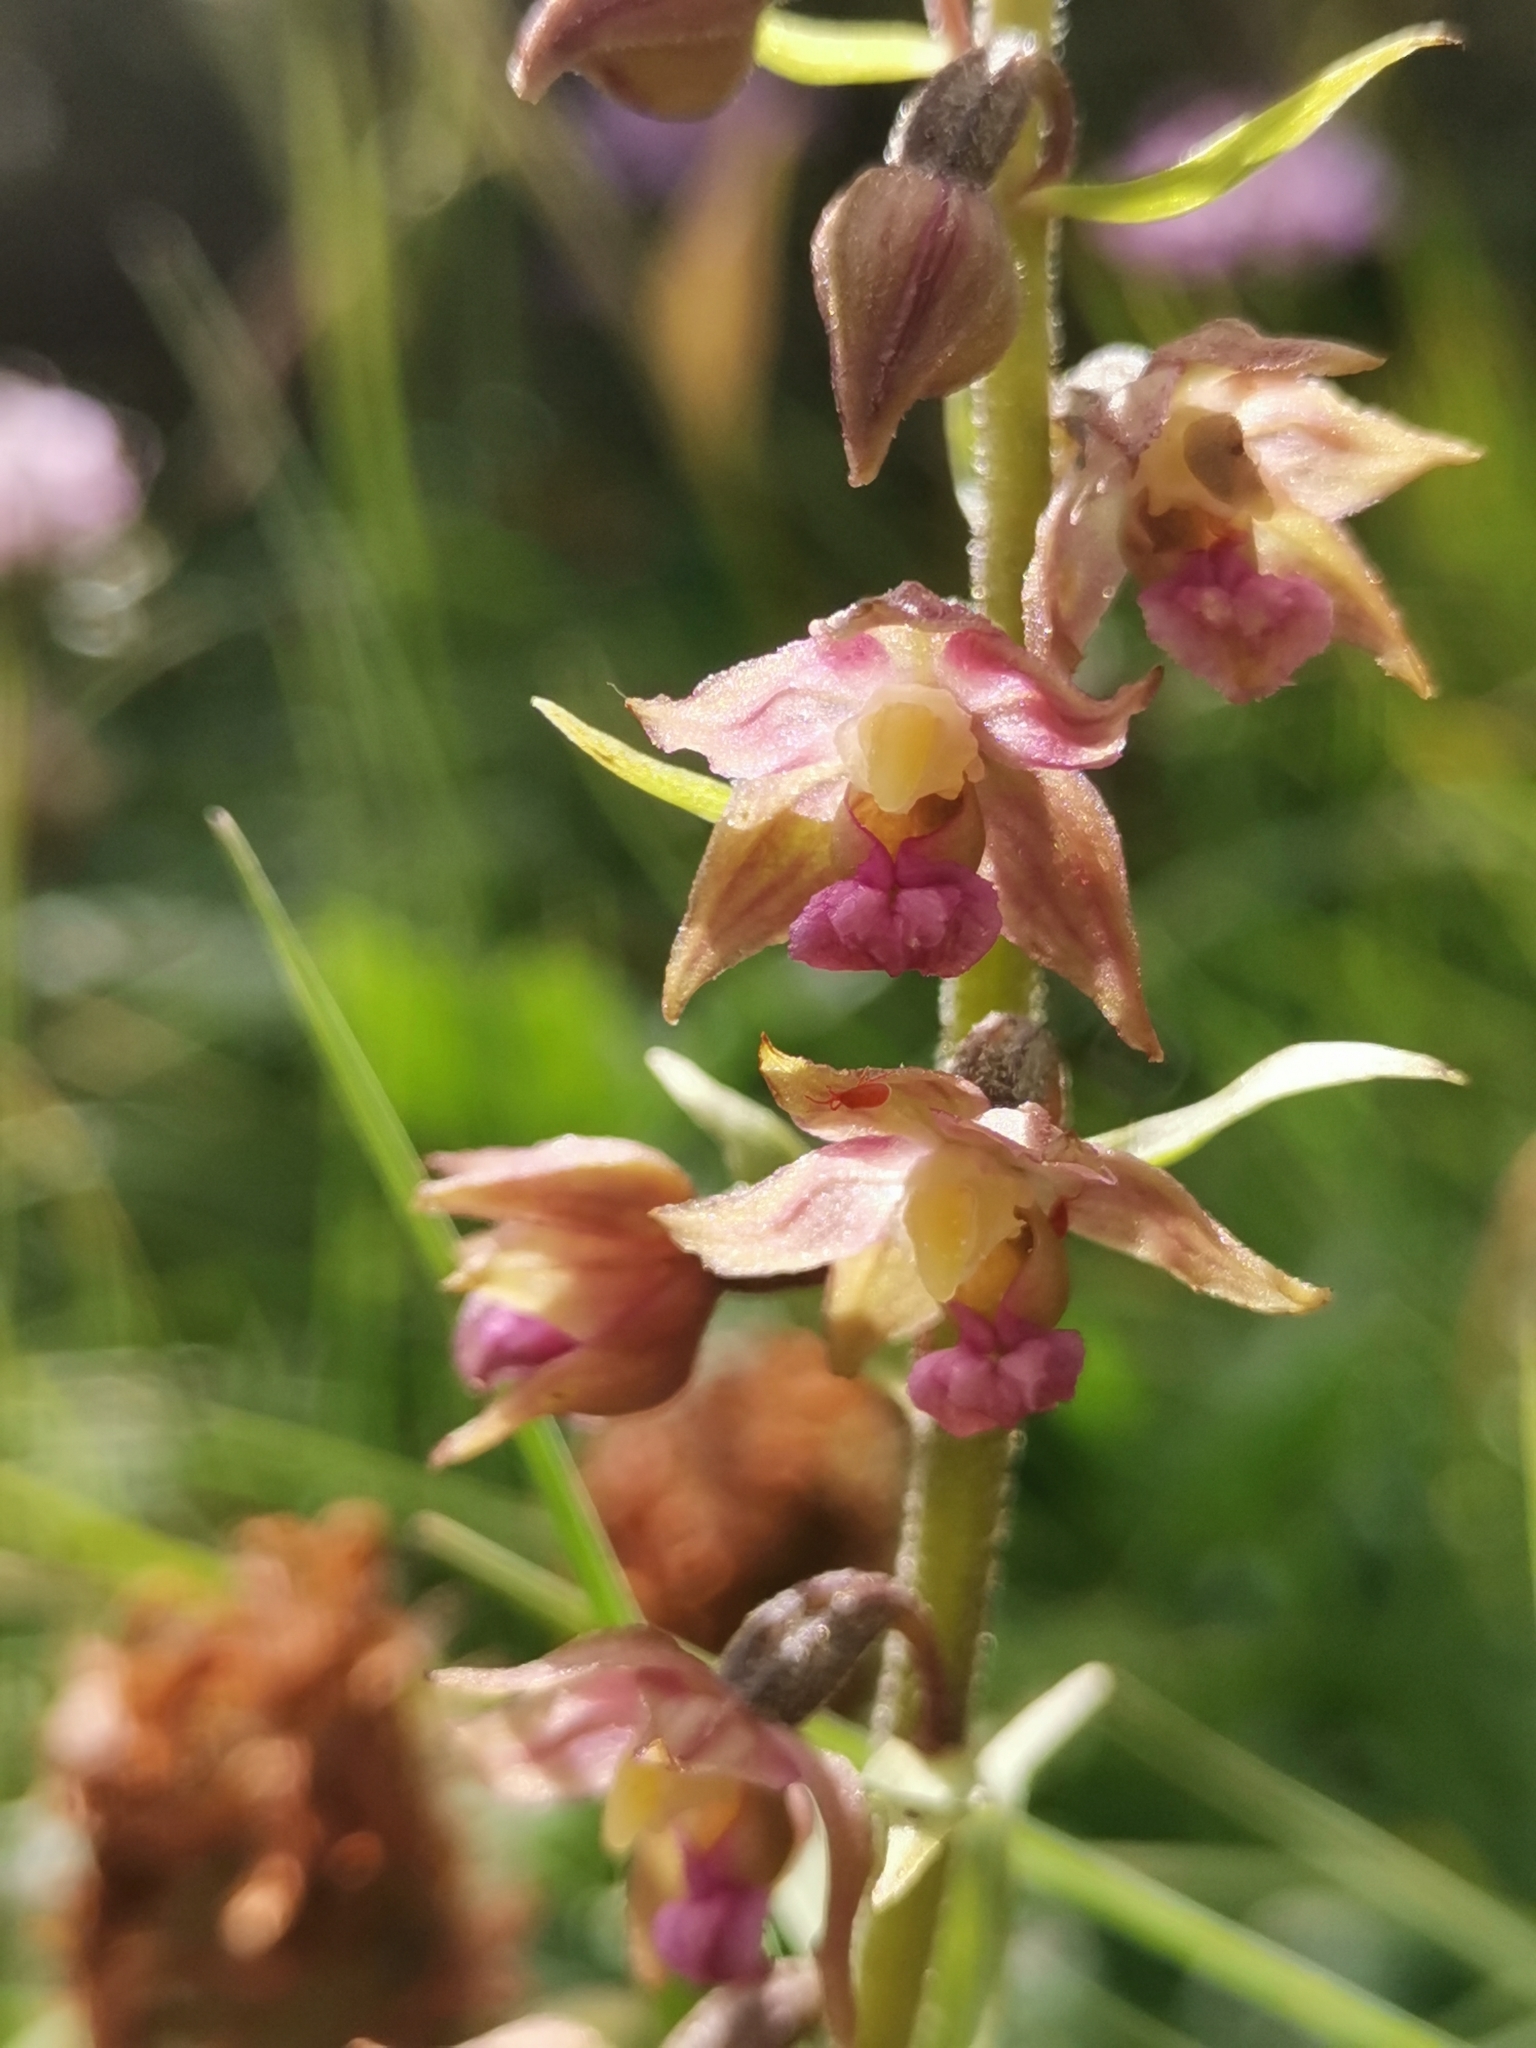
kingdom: Plantae
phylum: Tracheophyta
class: Liliopsida
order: Asparagales
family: Orchidaceae
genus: Epipactis
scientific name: Epipactis atrorubens
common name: Dark-red helleborine
